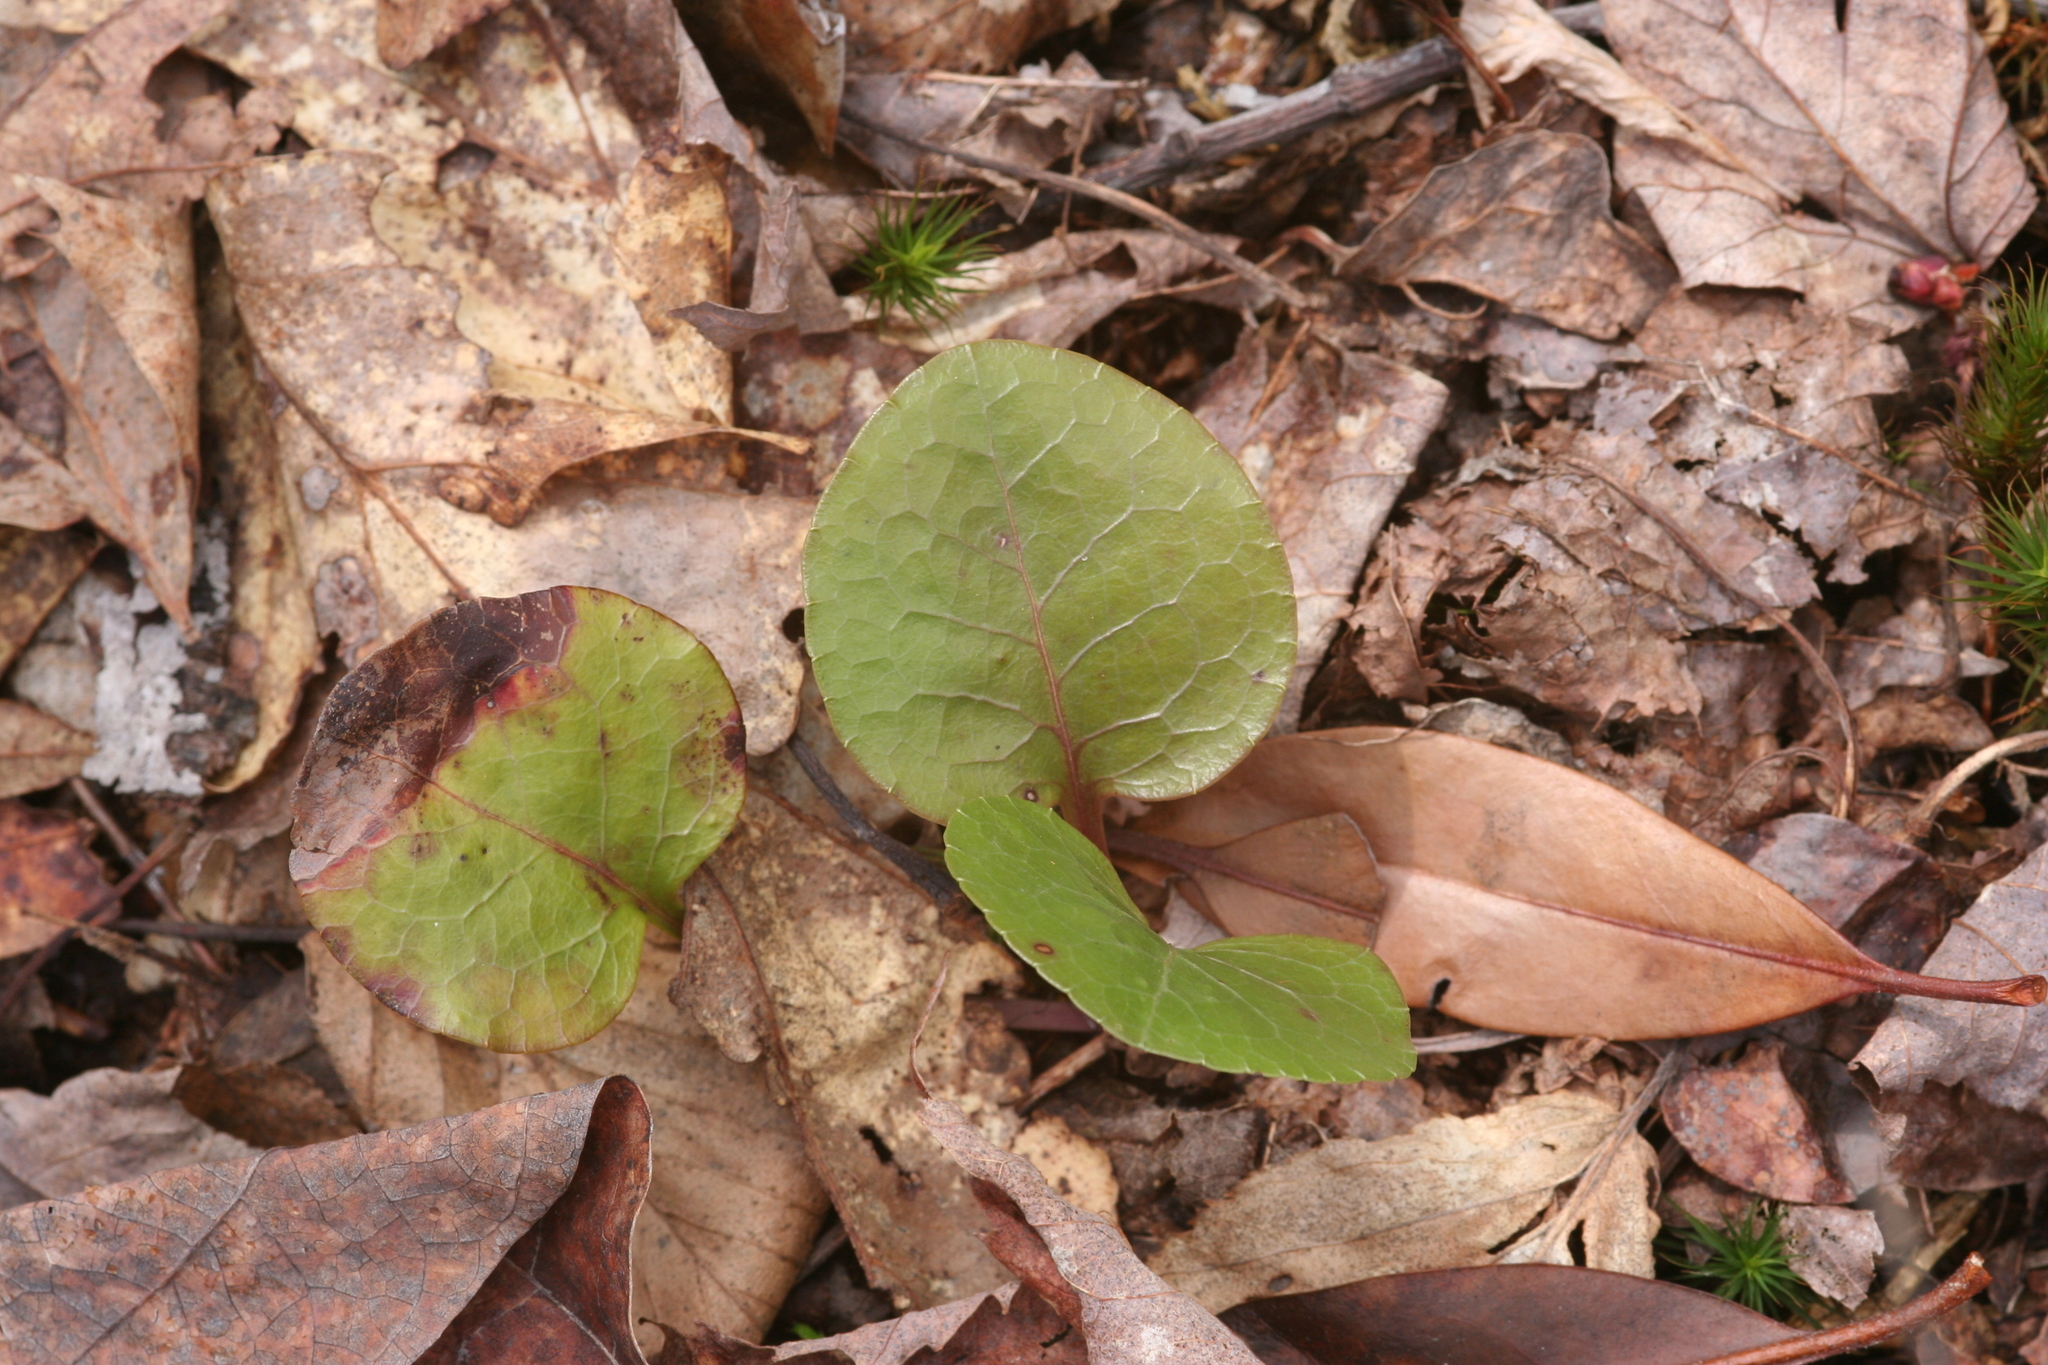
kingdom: Plantae
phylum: Tracheophyta
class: Magnoliopsida
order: Ericales
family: Ericaceae
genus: Pyrola
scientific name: Pyrola americana
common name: American wintergreen
